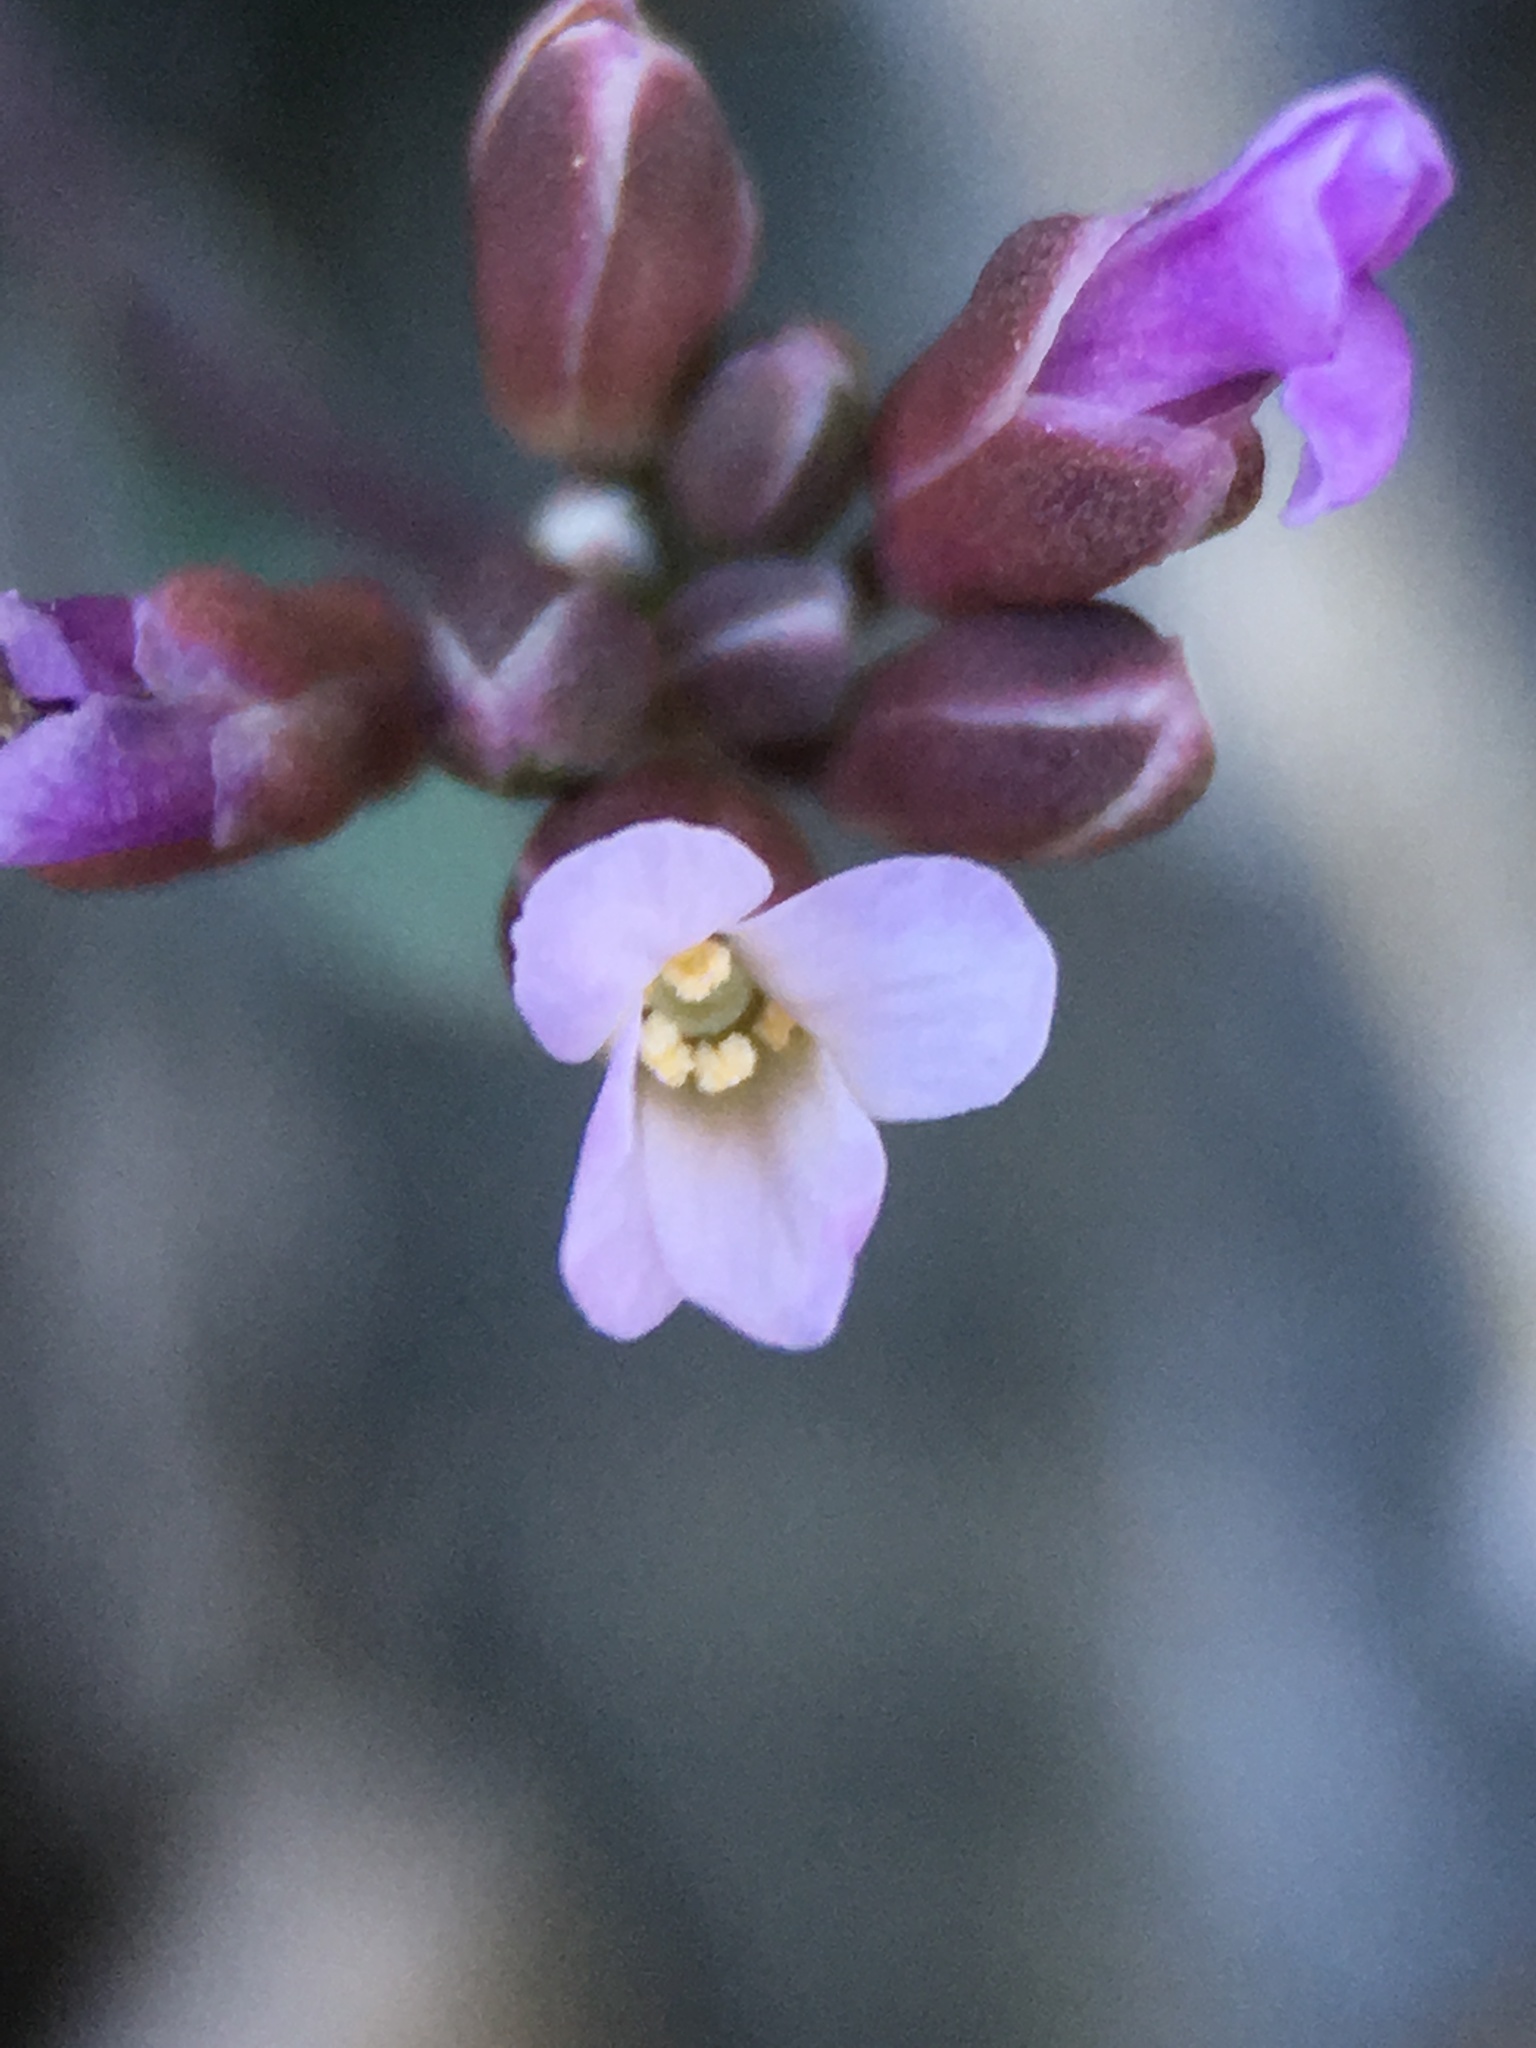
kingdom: Plantae
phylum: Tracheophyta
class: Magnoliopsida
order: Brassicales
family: Brassicaceae
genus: Boechera
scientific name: Boechera nevadensis
